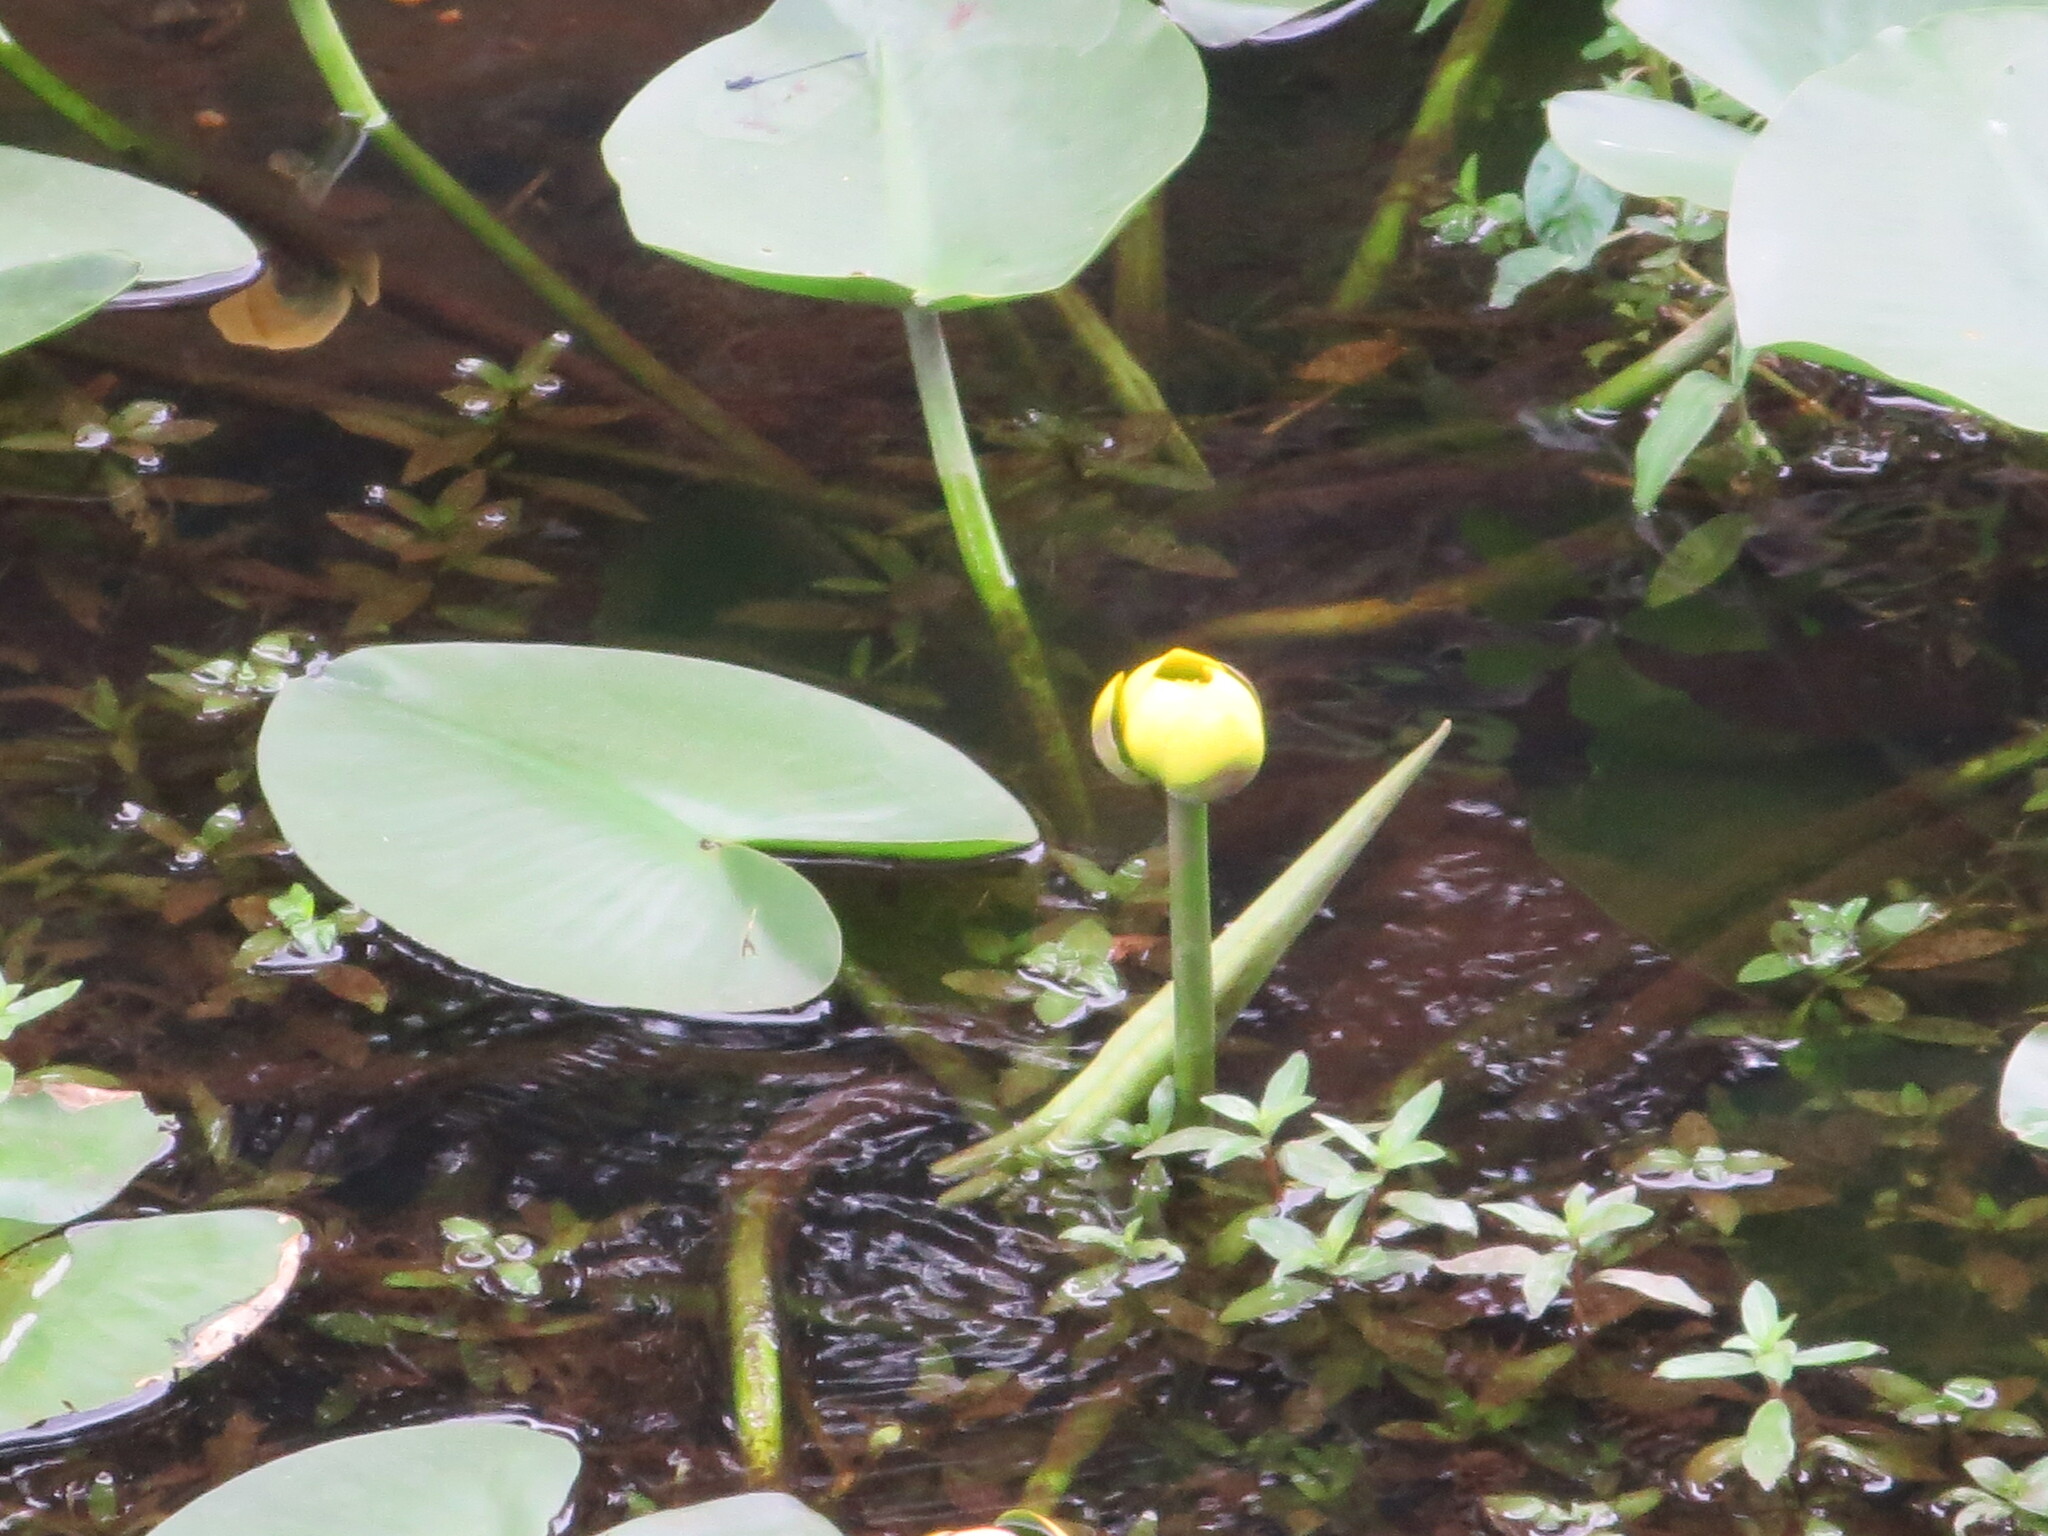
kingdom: Plantae
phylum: Tracheophyta
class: Magnoliopsida
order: Nymphaeales
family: Nymphaeaceae
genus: Nuphar
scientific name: Nuphar advena
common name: Spatter-dock
